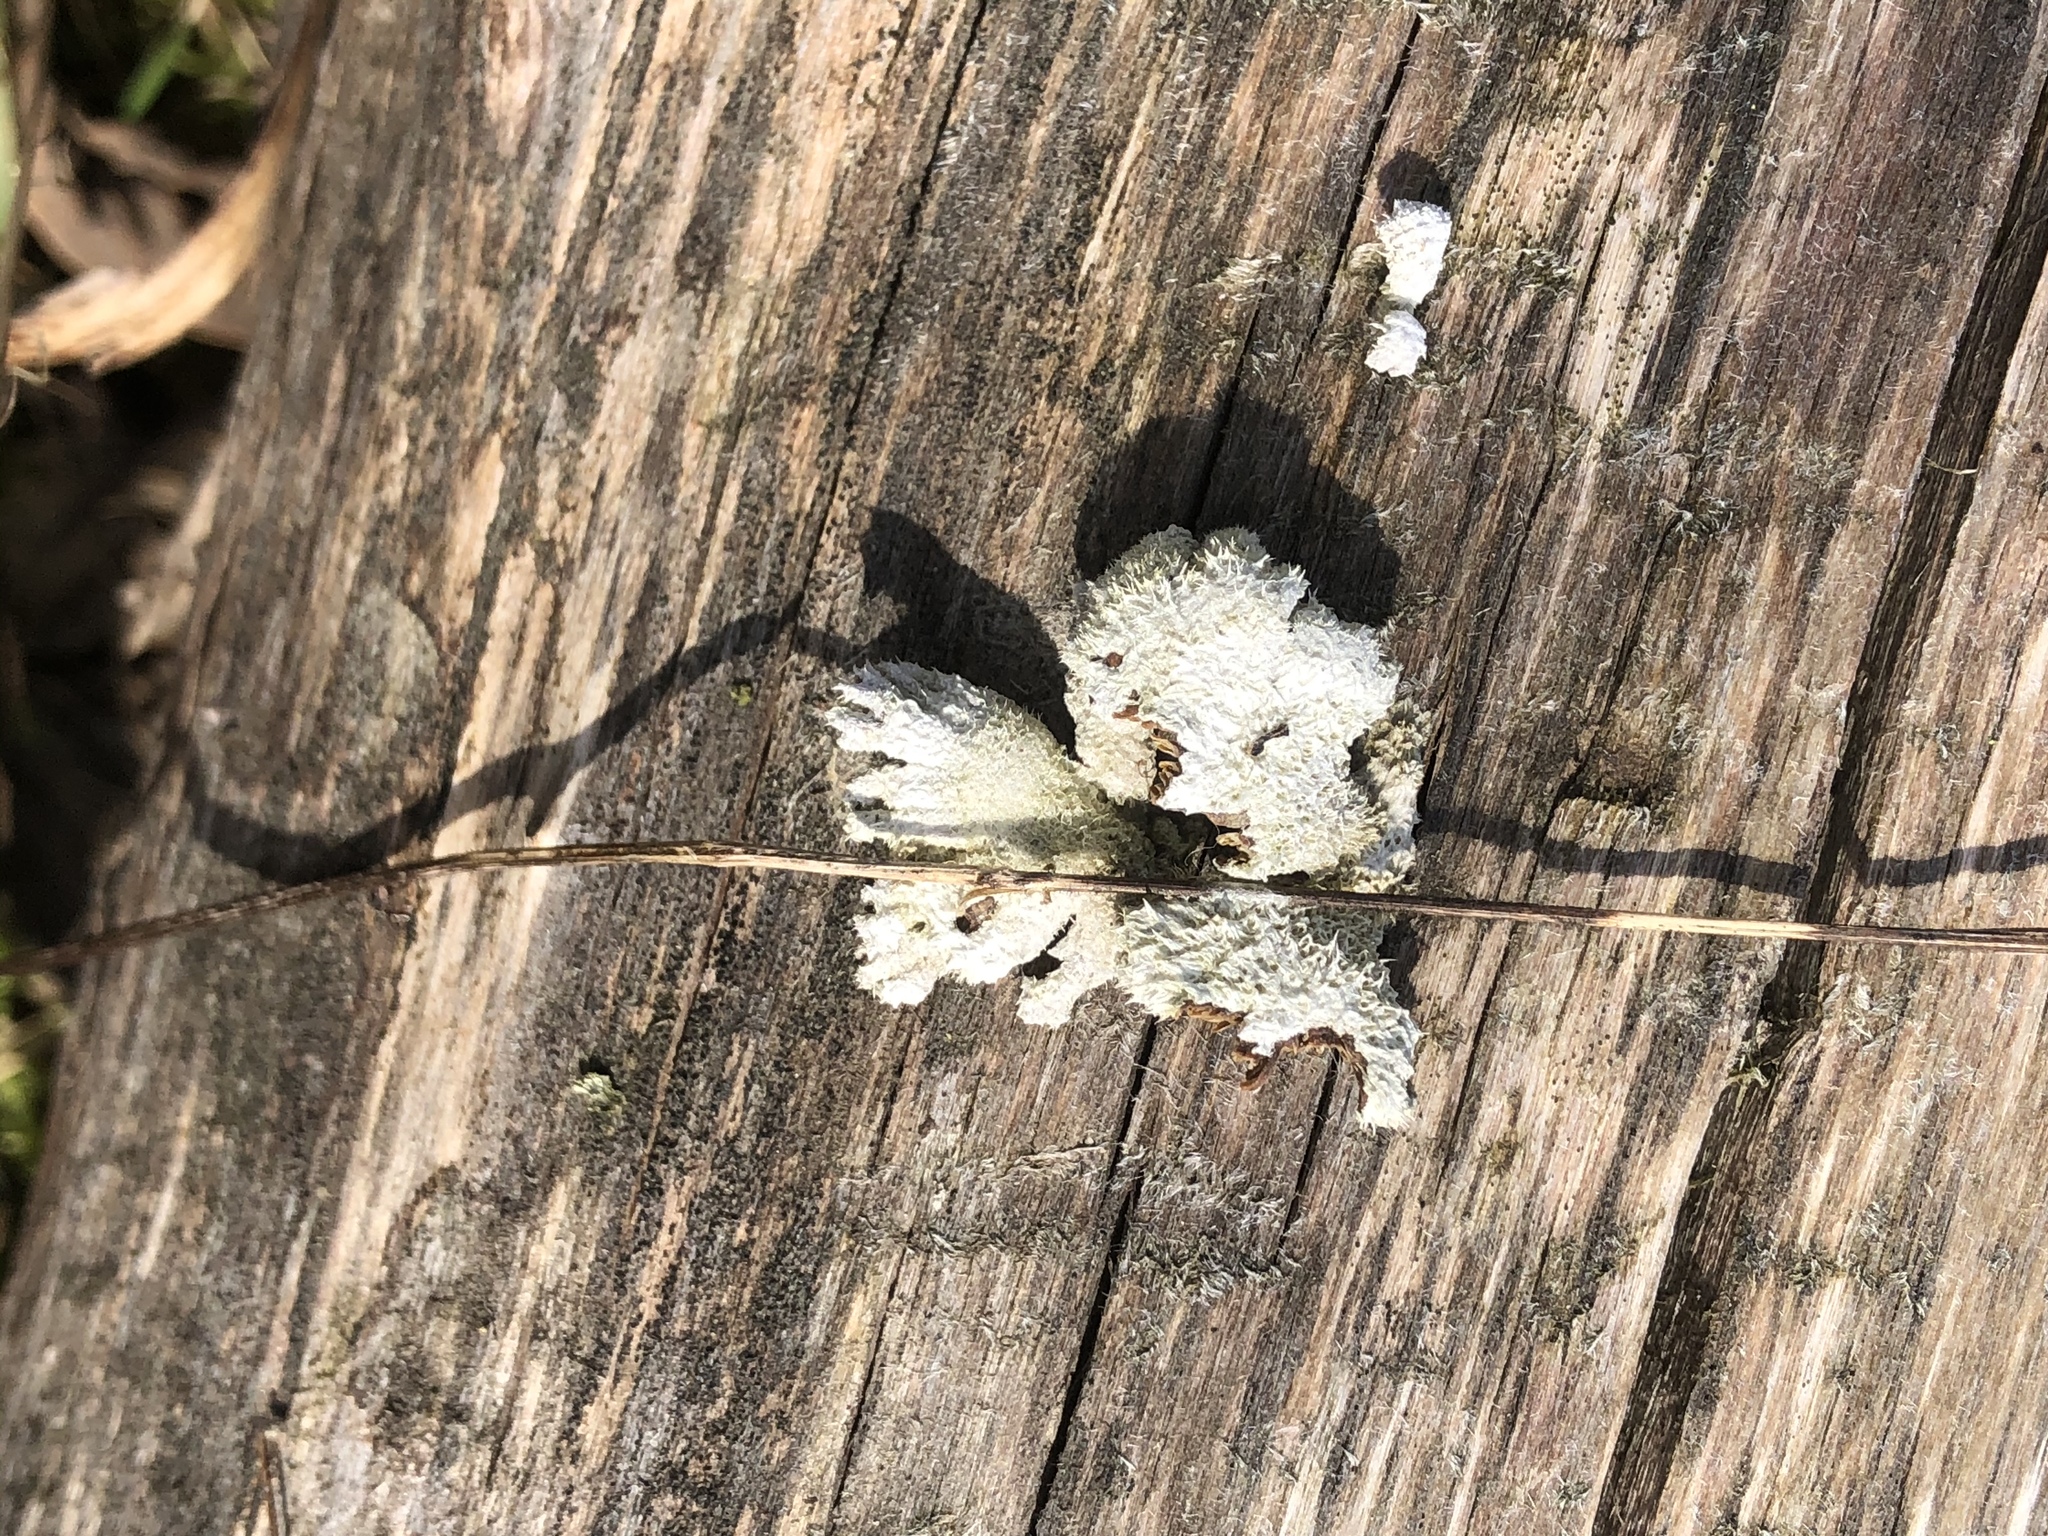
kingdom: Fungi
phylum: Basidiomycota
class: Agaricomycetes
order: Agaricales
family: Schizophyllaceae
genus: Schizophyllum
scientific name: Schizophyllum commune
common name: Common porecrust
